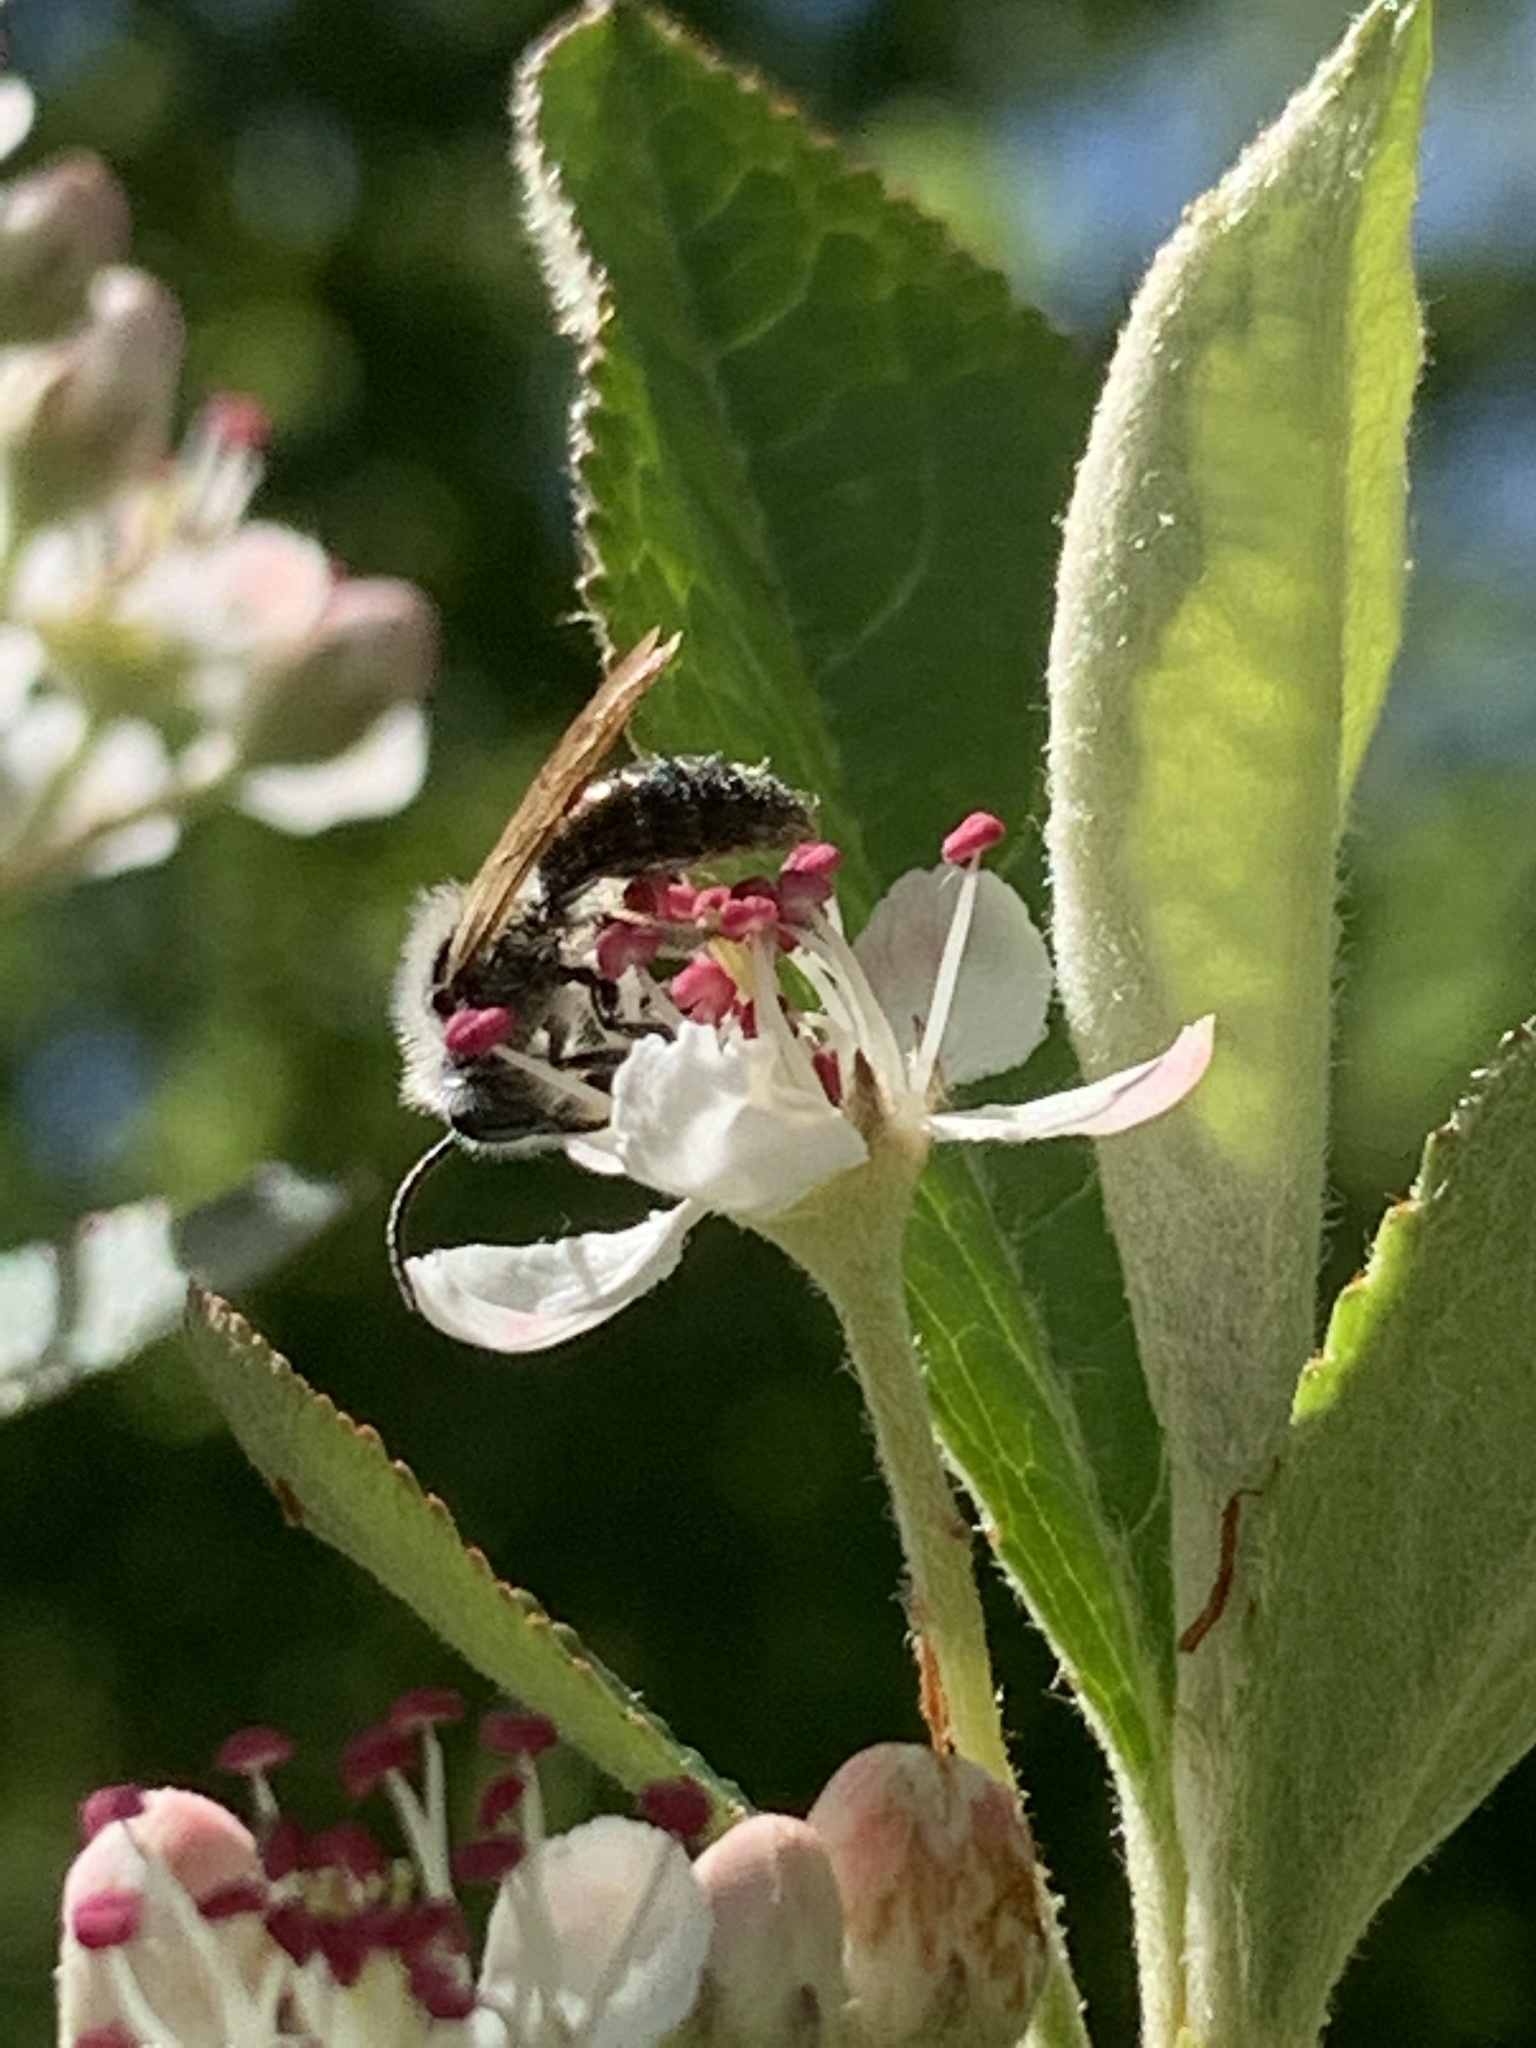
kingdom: Animalia
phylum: Arthropoda
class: Insecta
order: Hymenoptera
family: Andrenidae
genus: Andrena
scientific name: Andrena
